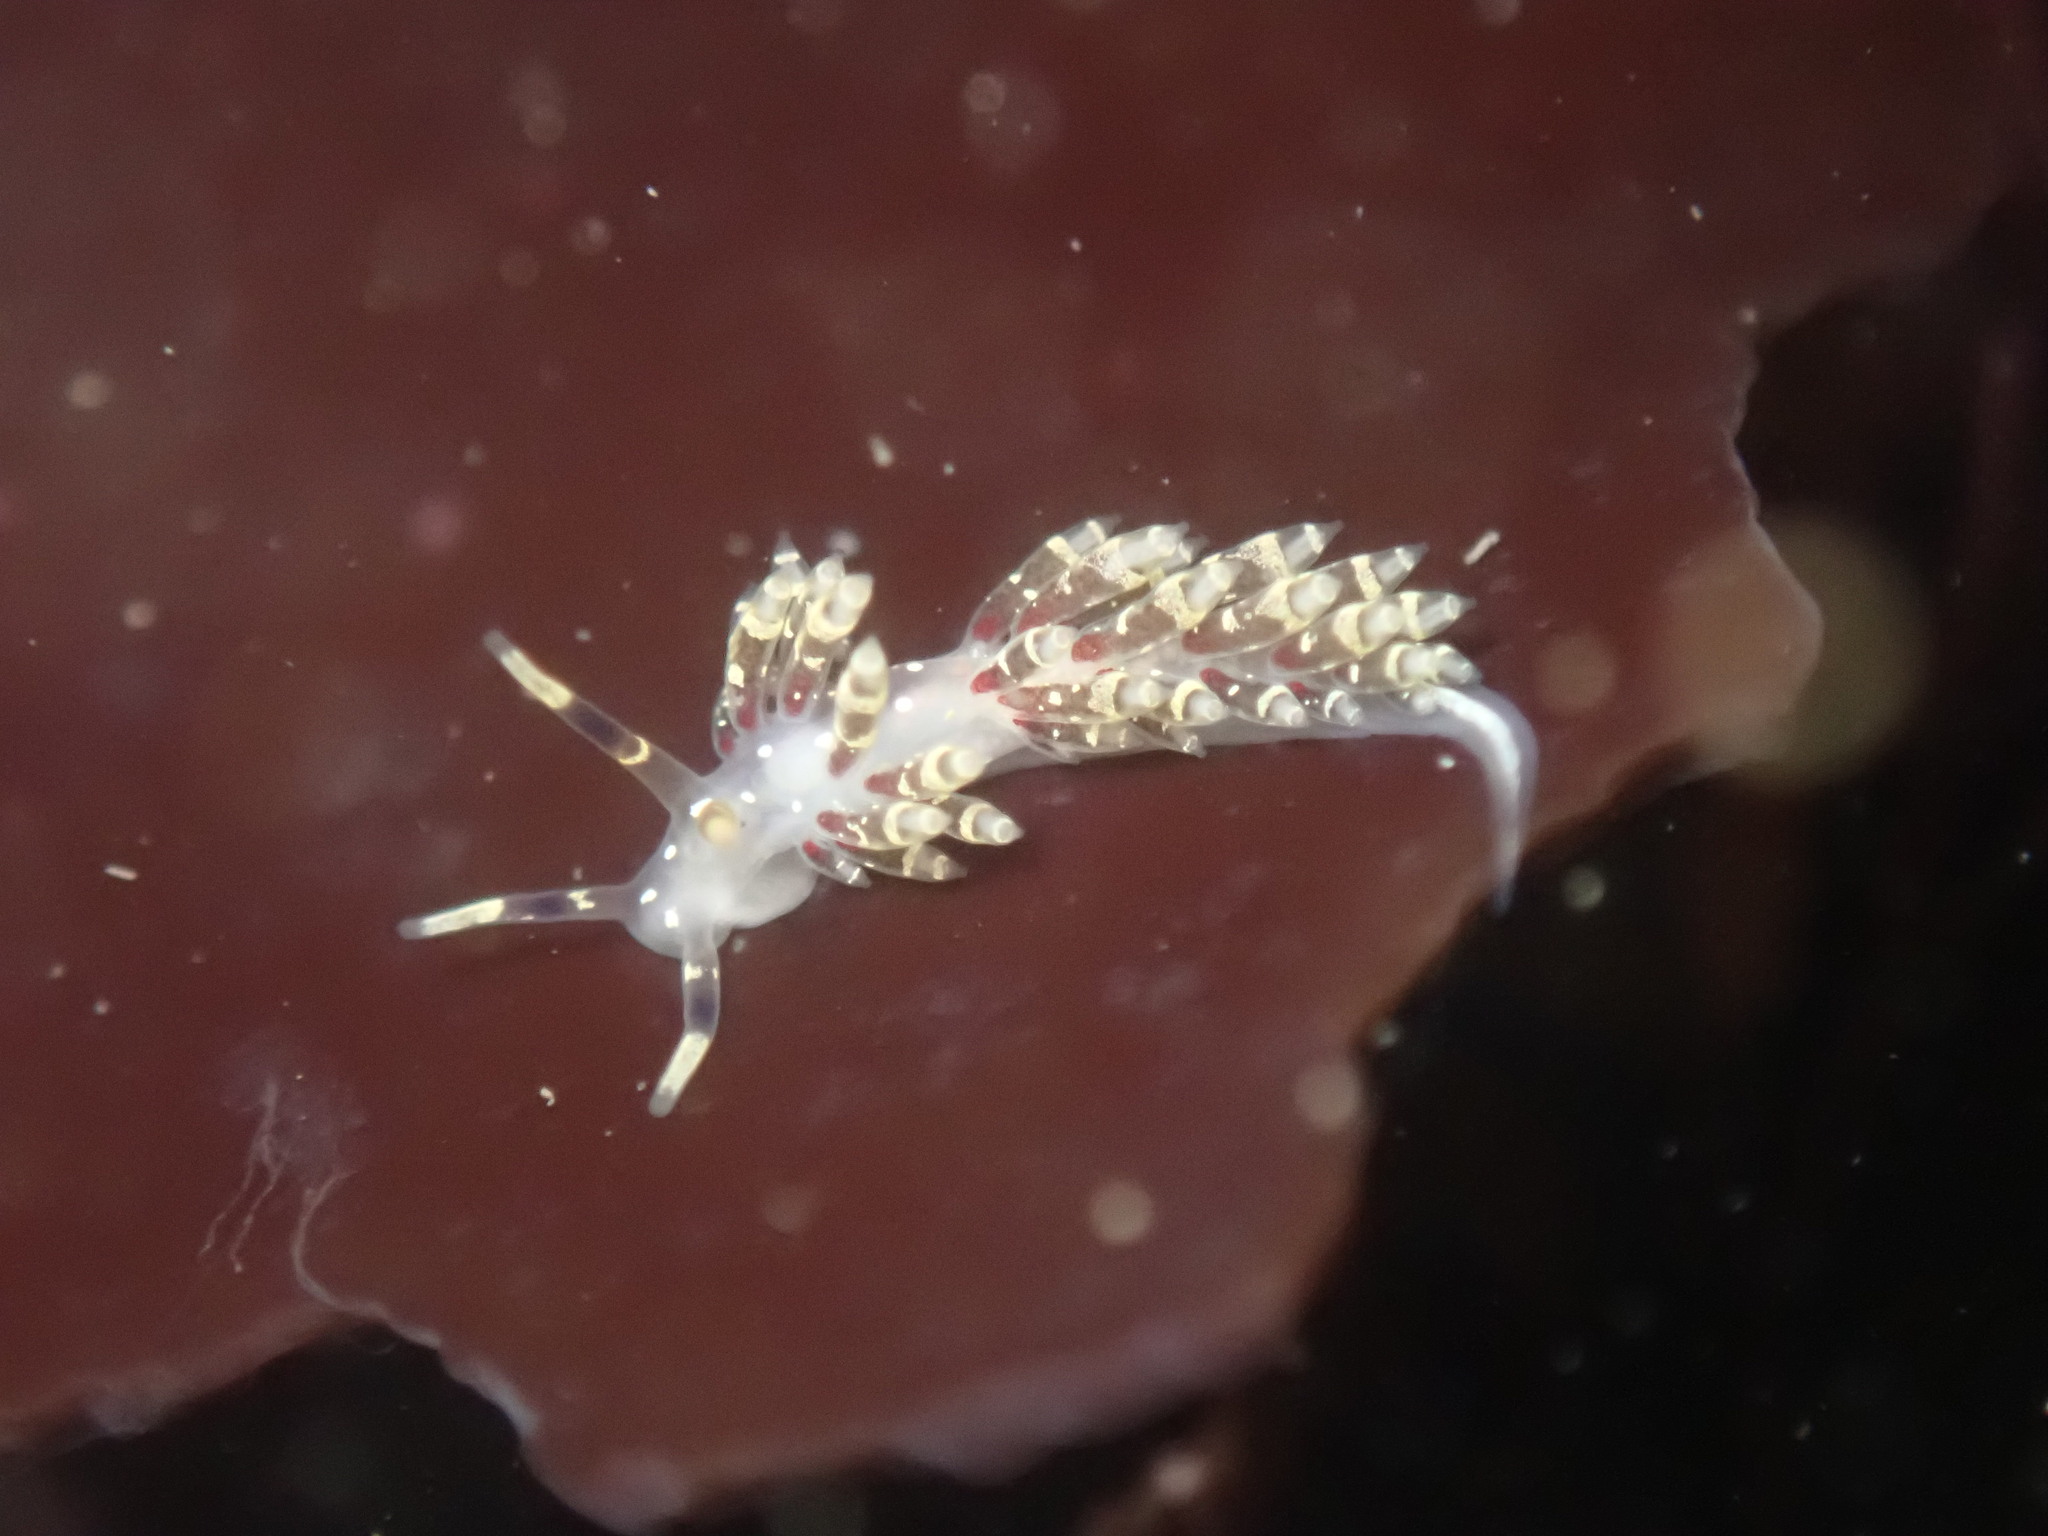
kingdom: Animalia
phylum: Mollusca
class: Gastropoda
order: Nudibranchia
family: Abronicidae
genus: Abronica
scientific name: Abronica abronia
